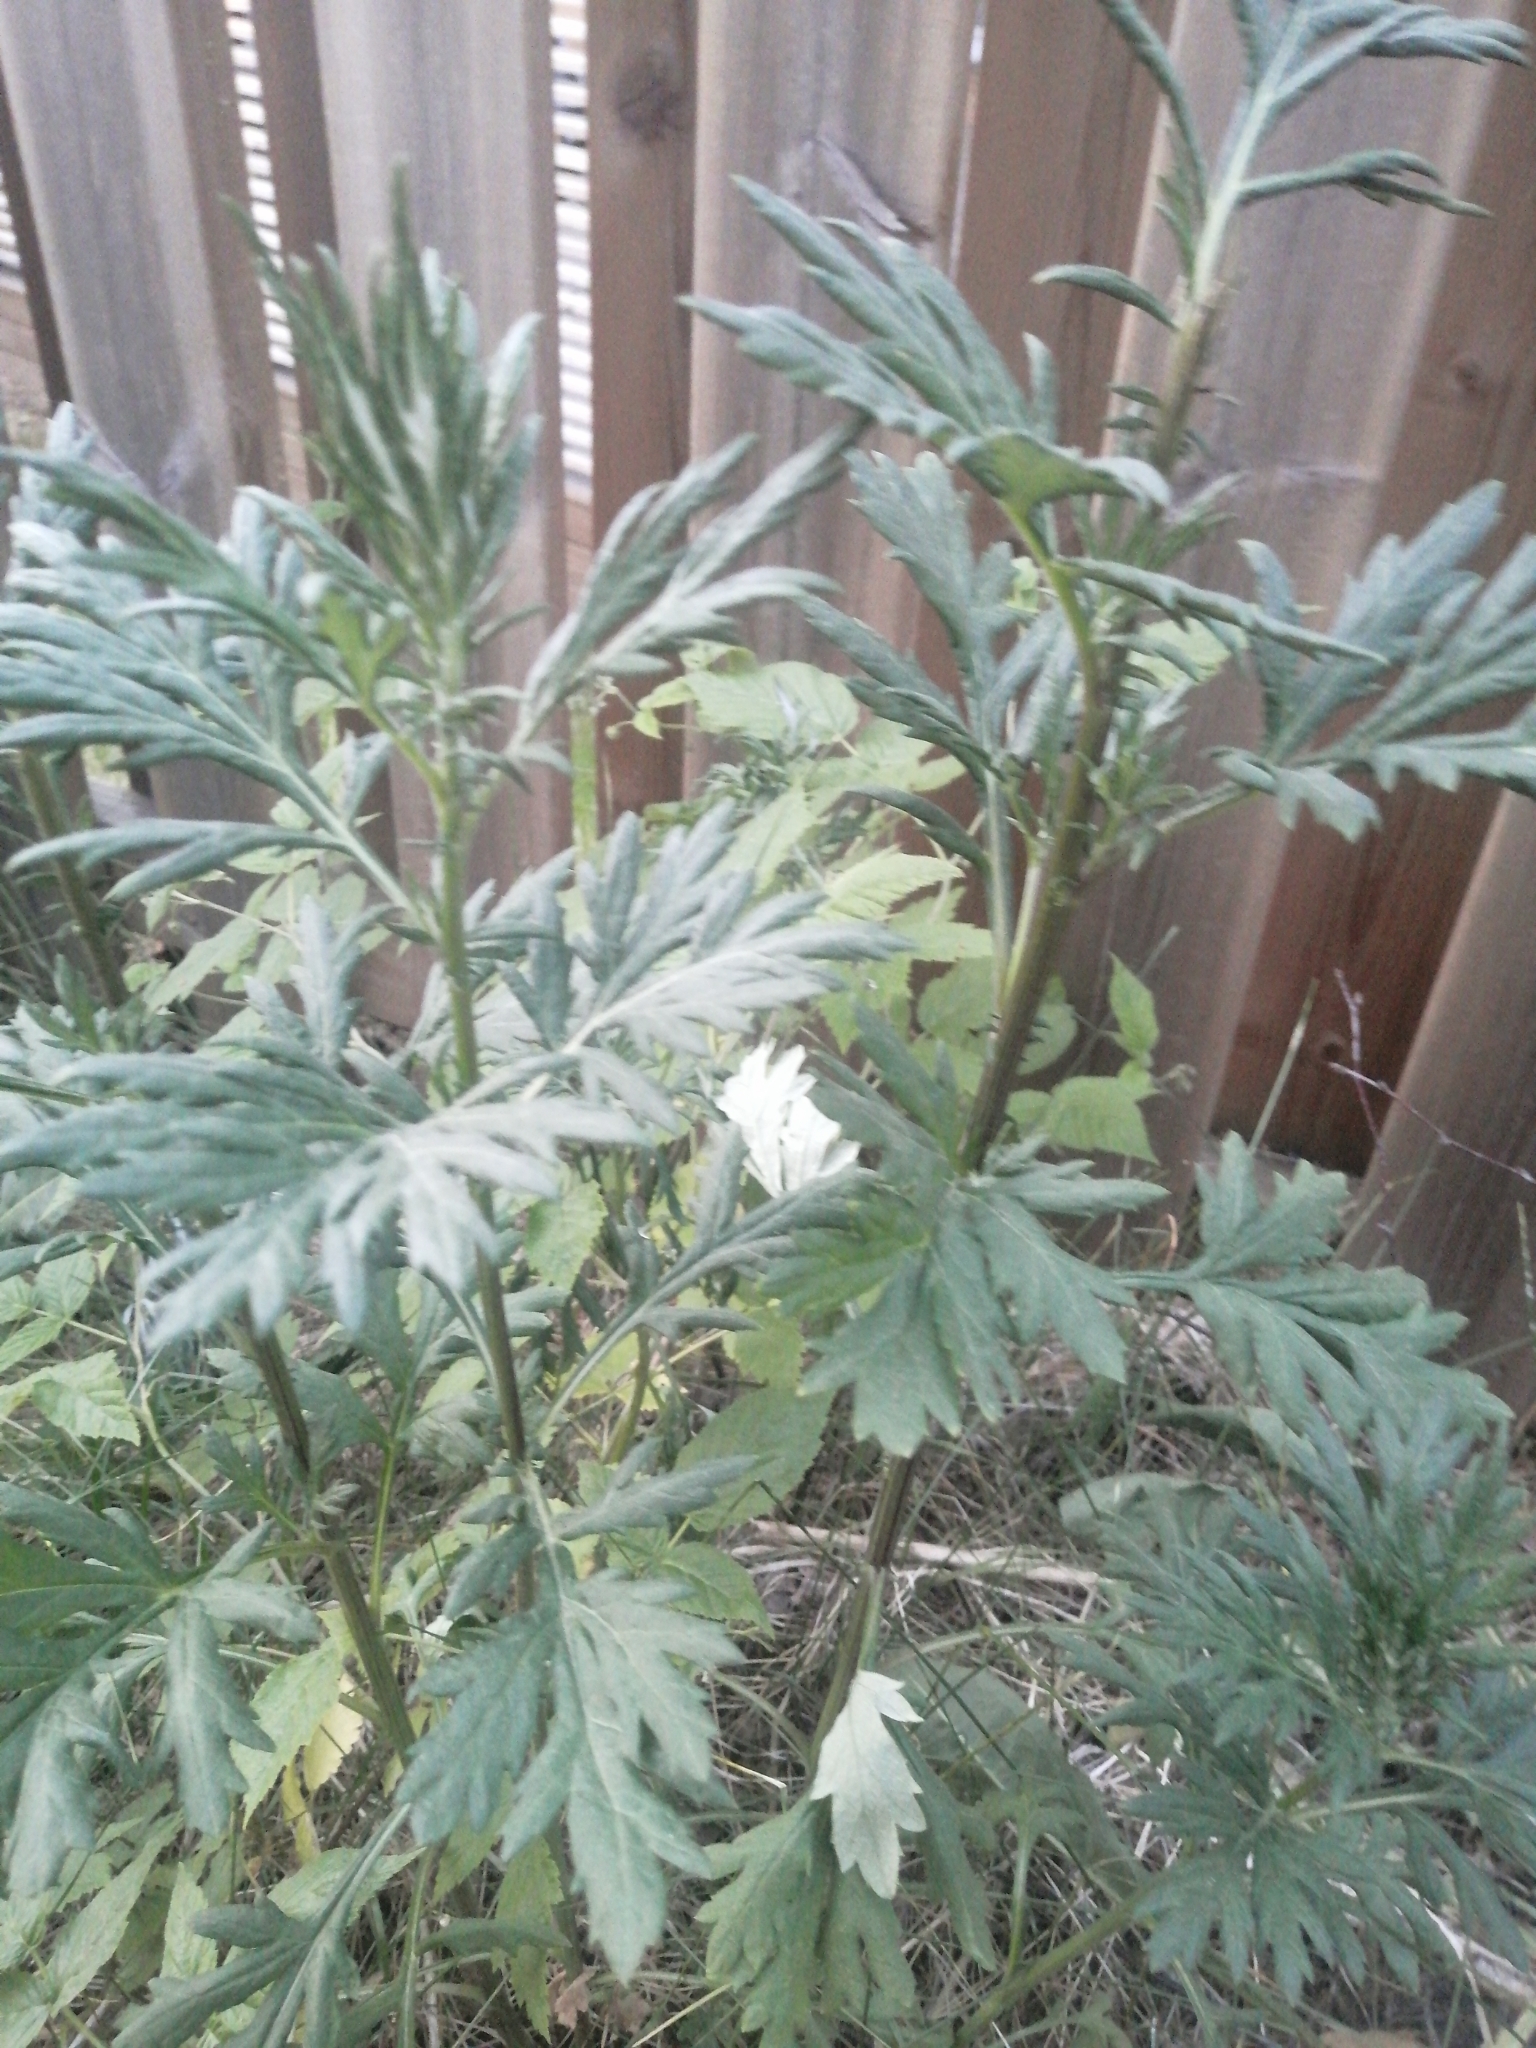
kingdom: Plantae
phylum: Tracheophyta
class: Magnoliopsida
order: Asterales
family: Asteraceae
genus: Artemisia
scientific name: Artemisia vulgaris
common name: Mugwort
